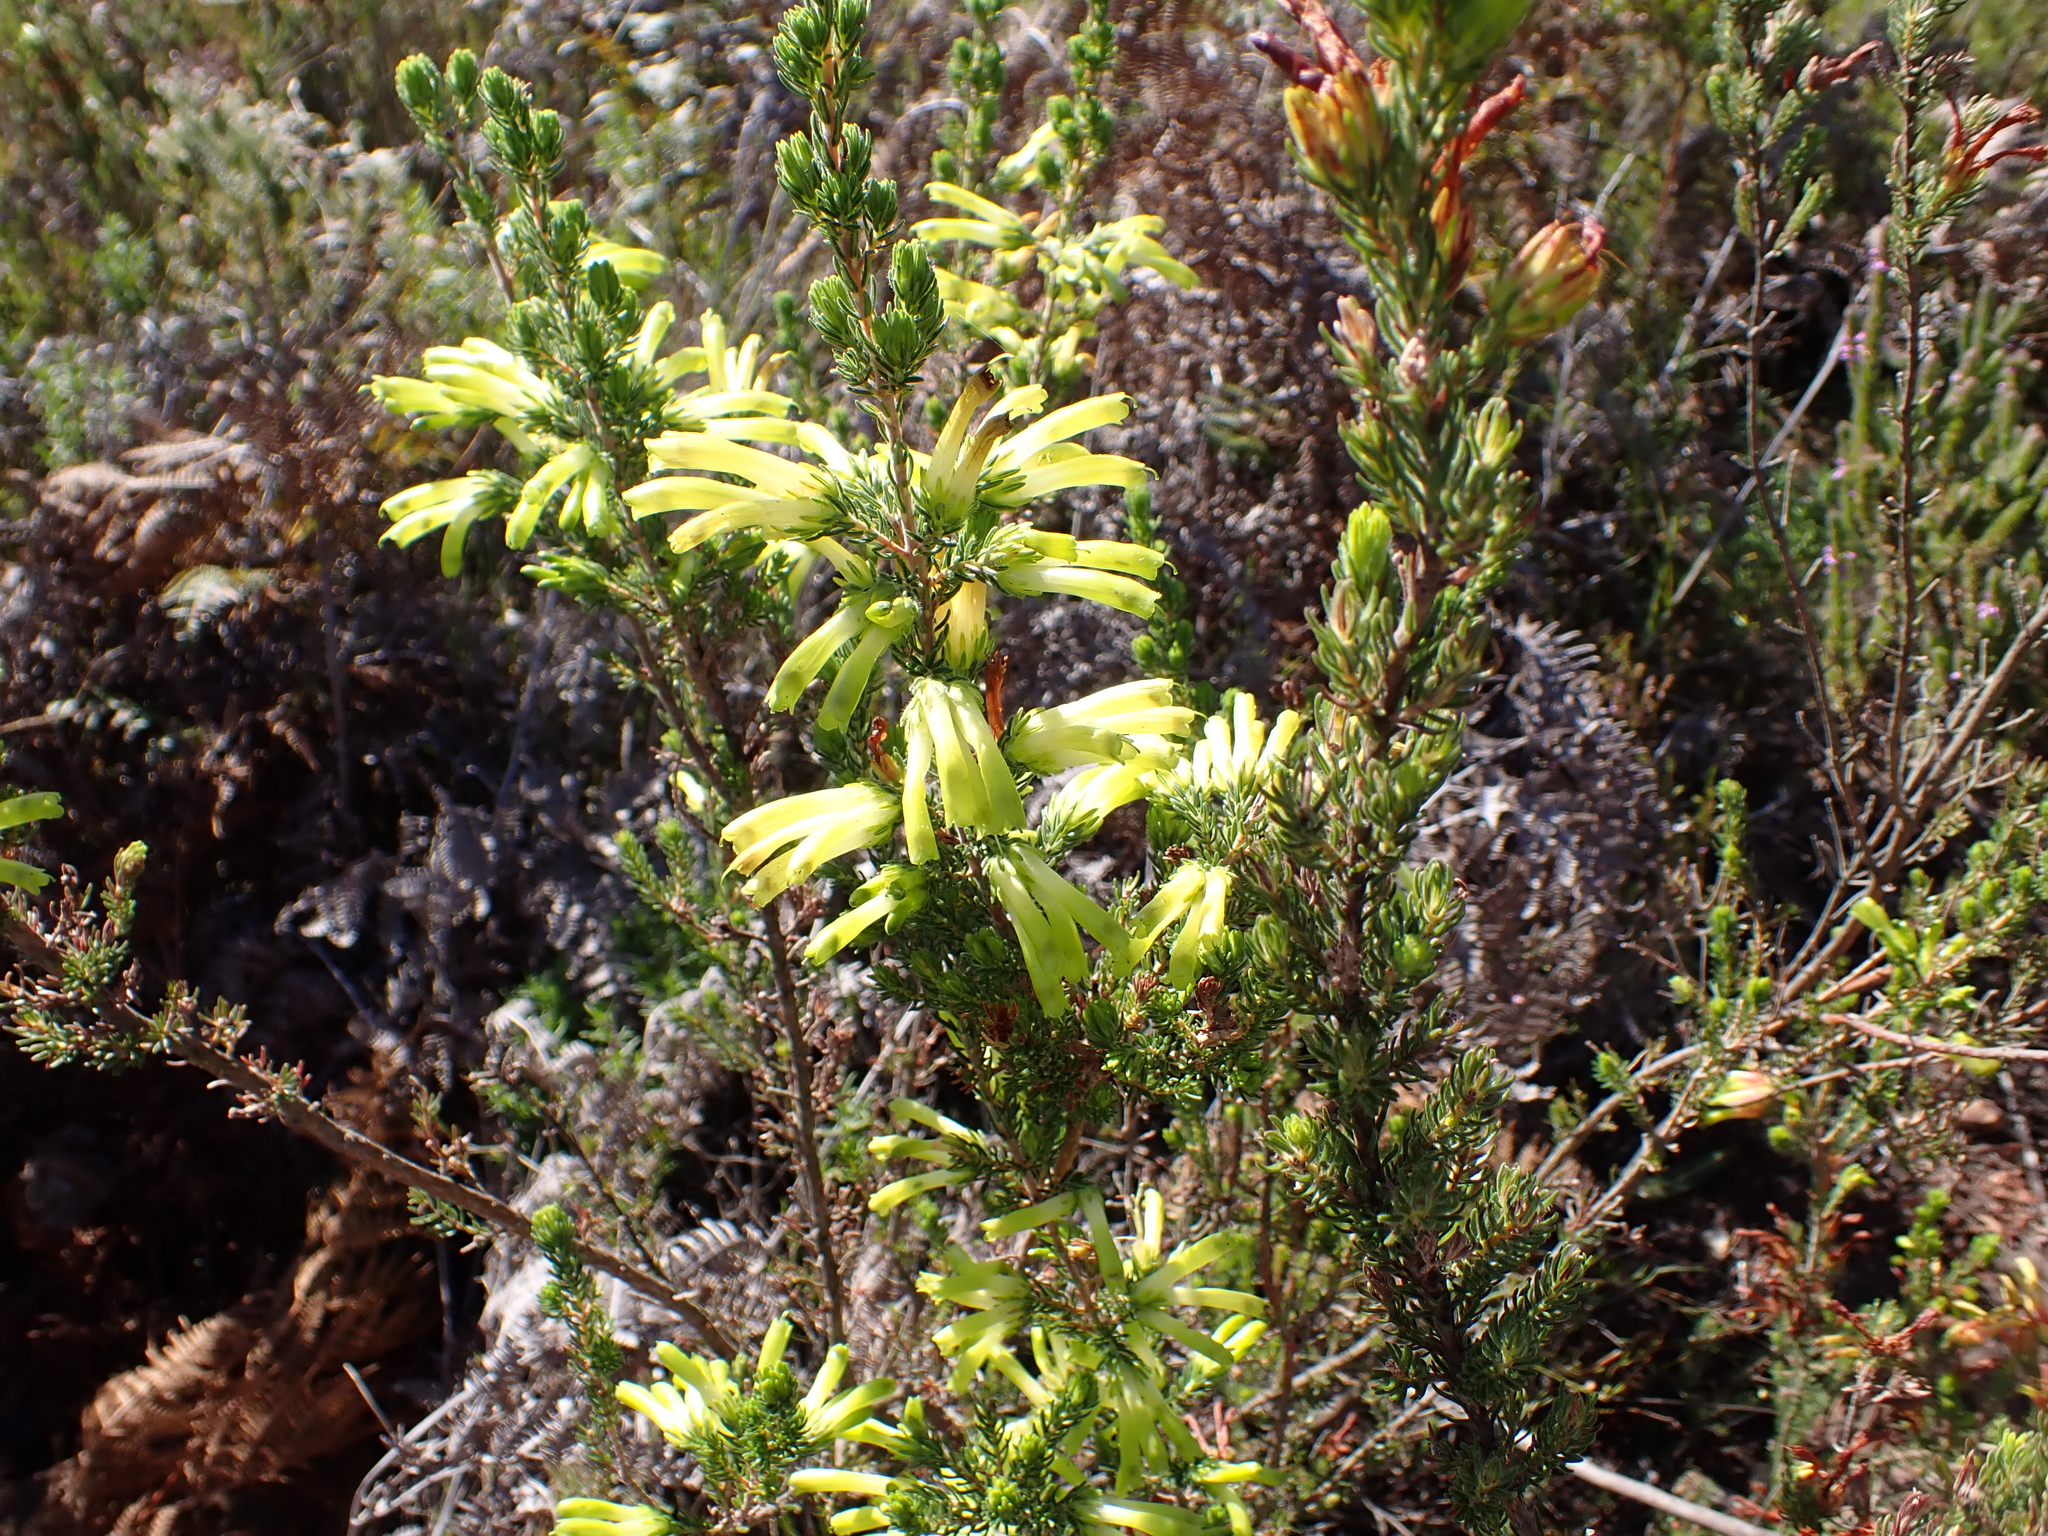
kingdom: Plantae
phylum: Tracheophyta
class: Magnoliopsida
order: Ericales
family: Ericaceae
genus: Erica
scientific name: Erica unicolor
